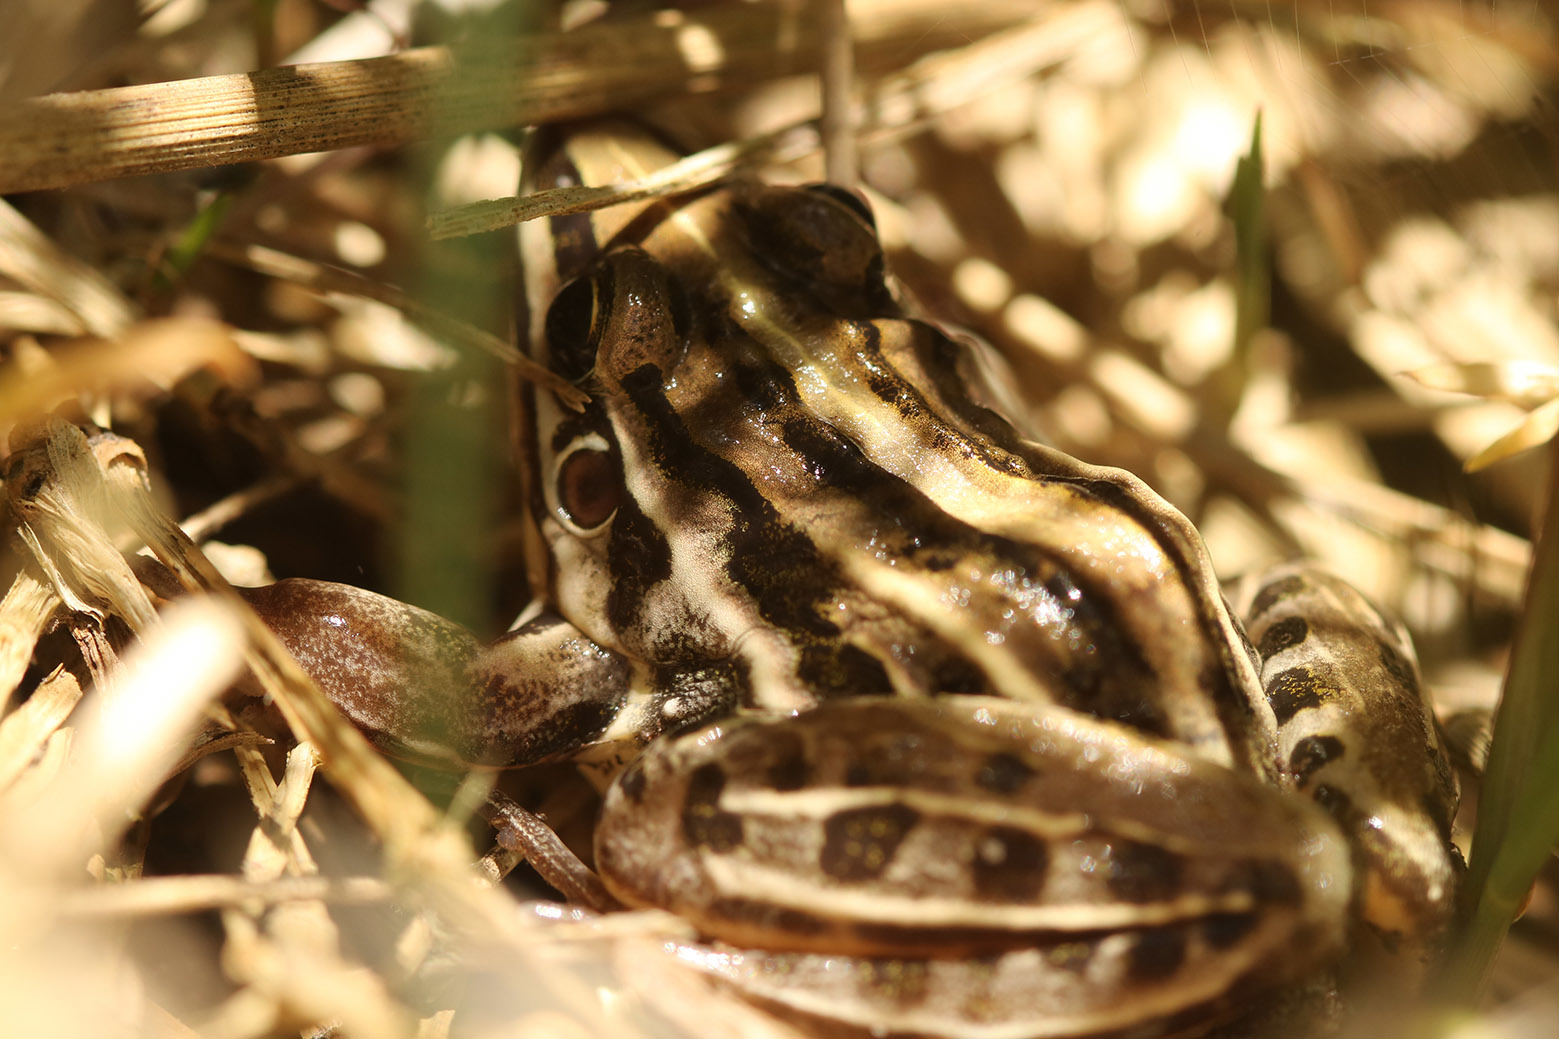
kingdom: Animalia
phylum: Chordata
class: Amphibia
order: Anura
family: Leptodactylidae
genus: Leptodactylus
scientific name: Leptodactylus gracilis
